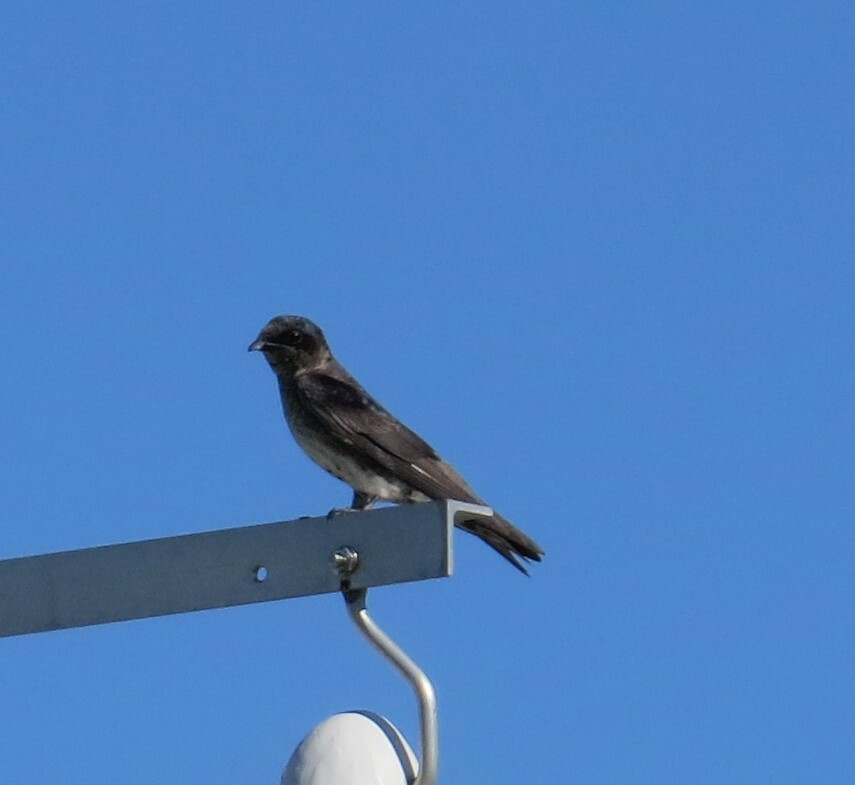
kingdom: Animalia
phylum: Chordata
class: Aves
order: Passeriformes
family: Hirundinidae
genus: Progne
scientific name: Progne subis
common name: Purple martin
